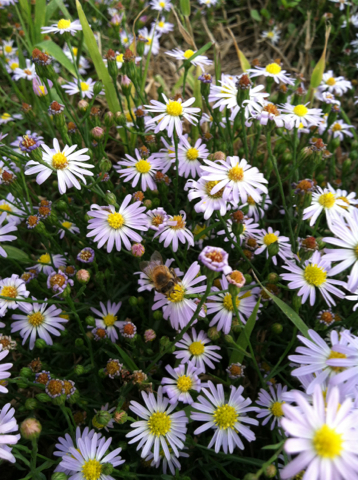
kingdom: Animalia
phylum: Arthropoda
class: Insecta
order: Hymenoptera
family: Apidae
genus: Apis
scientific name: Apis mellifera
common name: Honey bee
